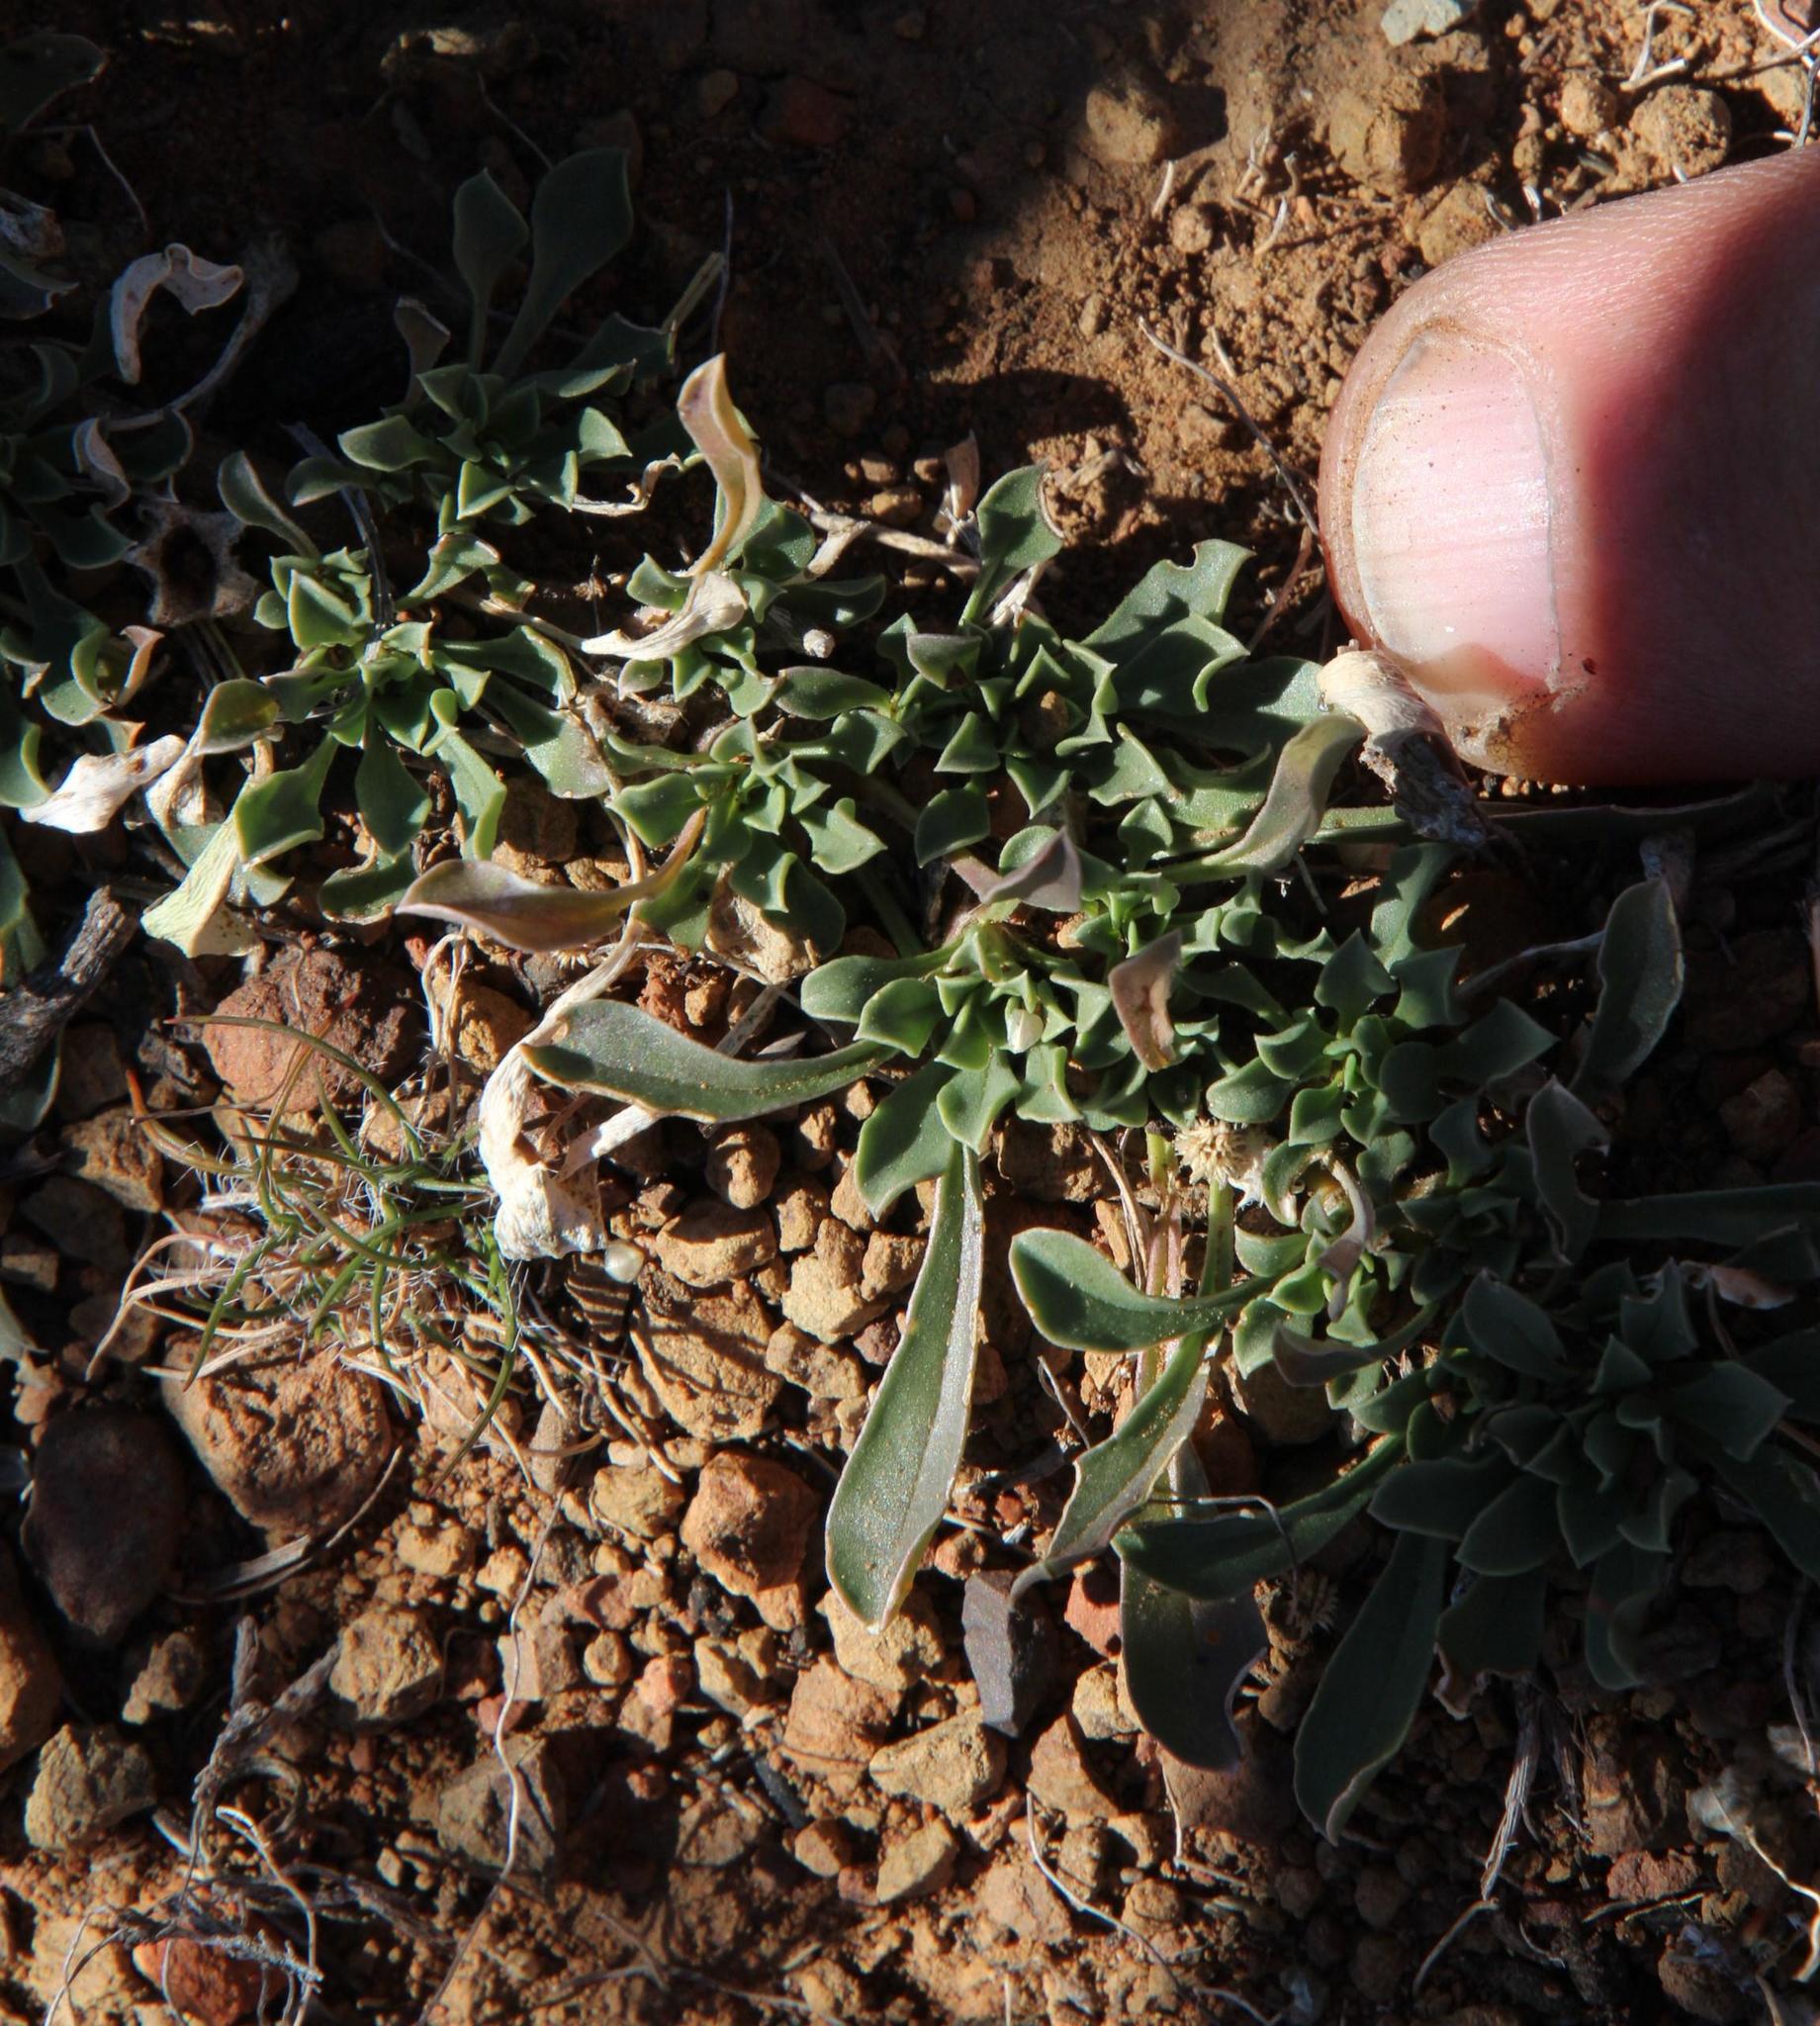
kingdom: Plantae
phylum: Tracheophyta
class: Magnoliopsida
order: Lamiales
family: Scrophulariaceae
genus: Aptosimum
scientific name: Aptosimum indivisum
